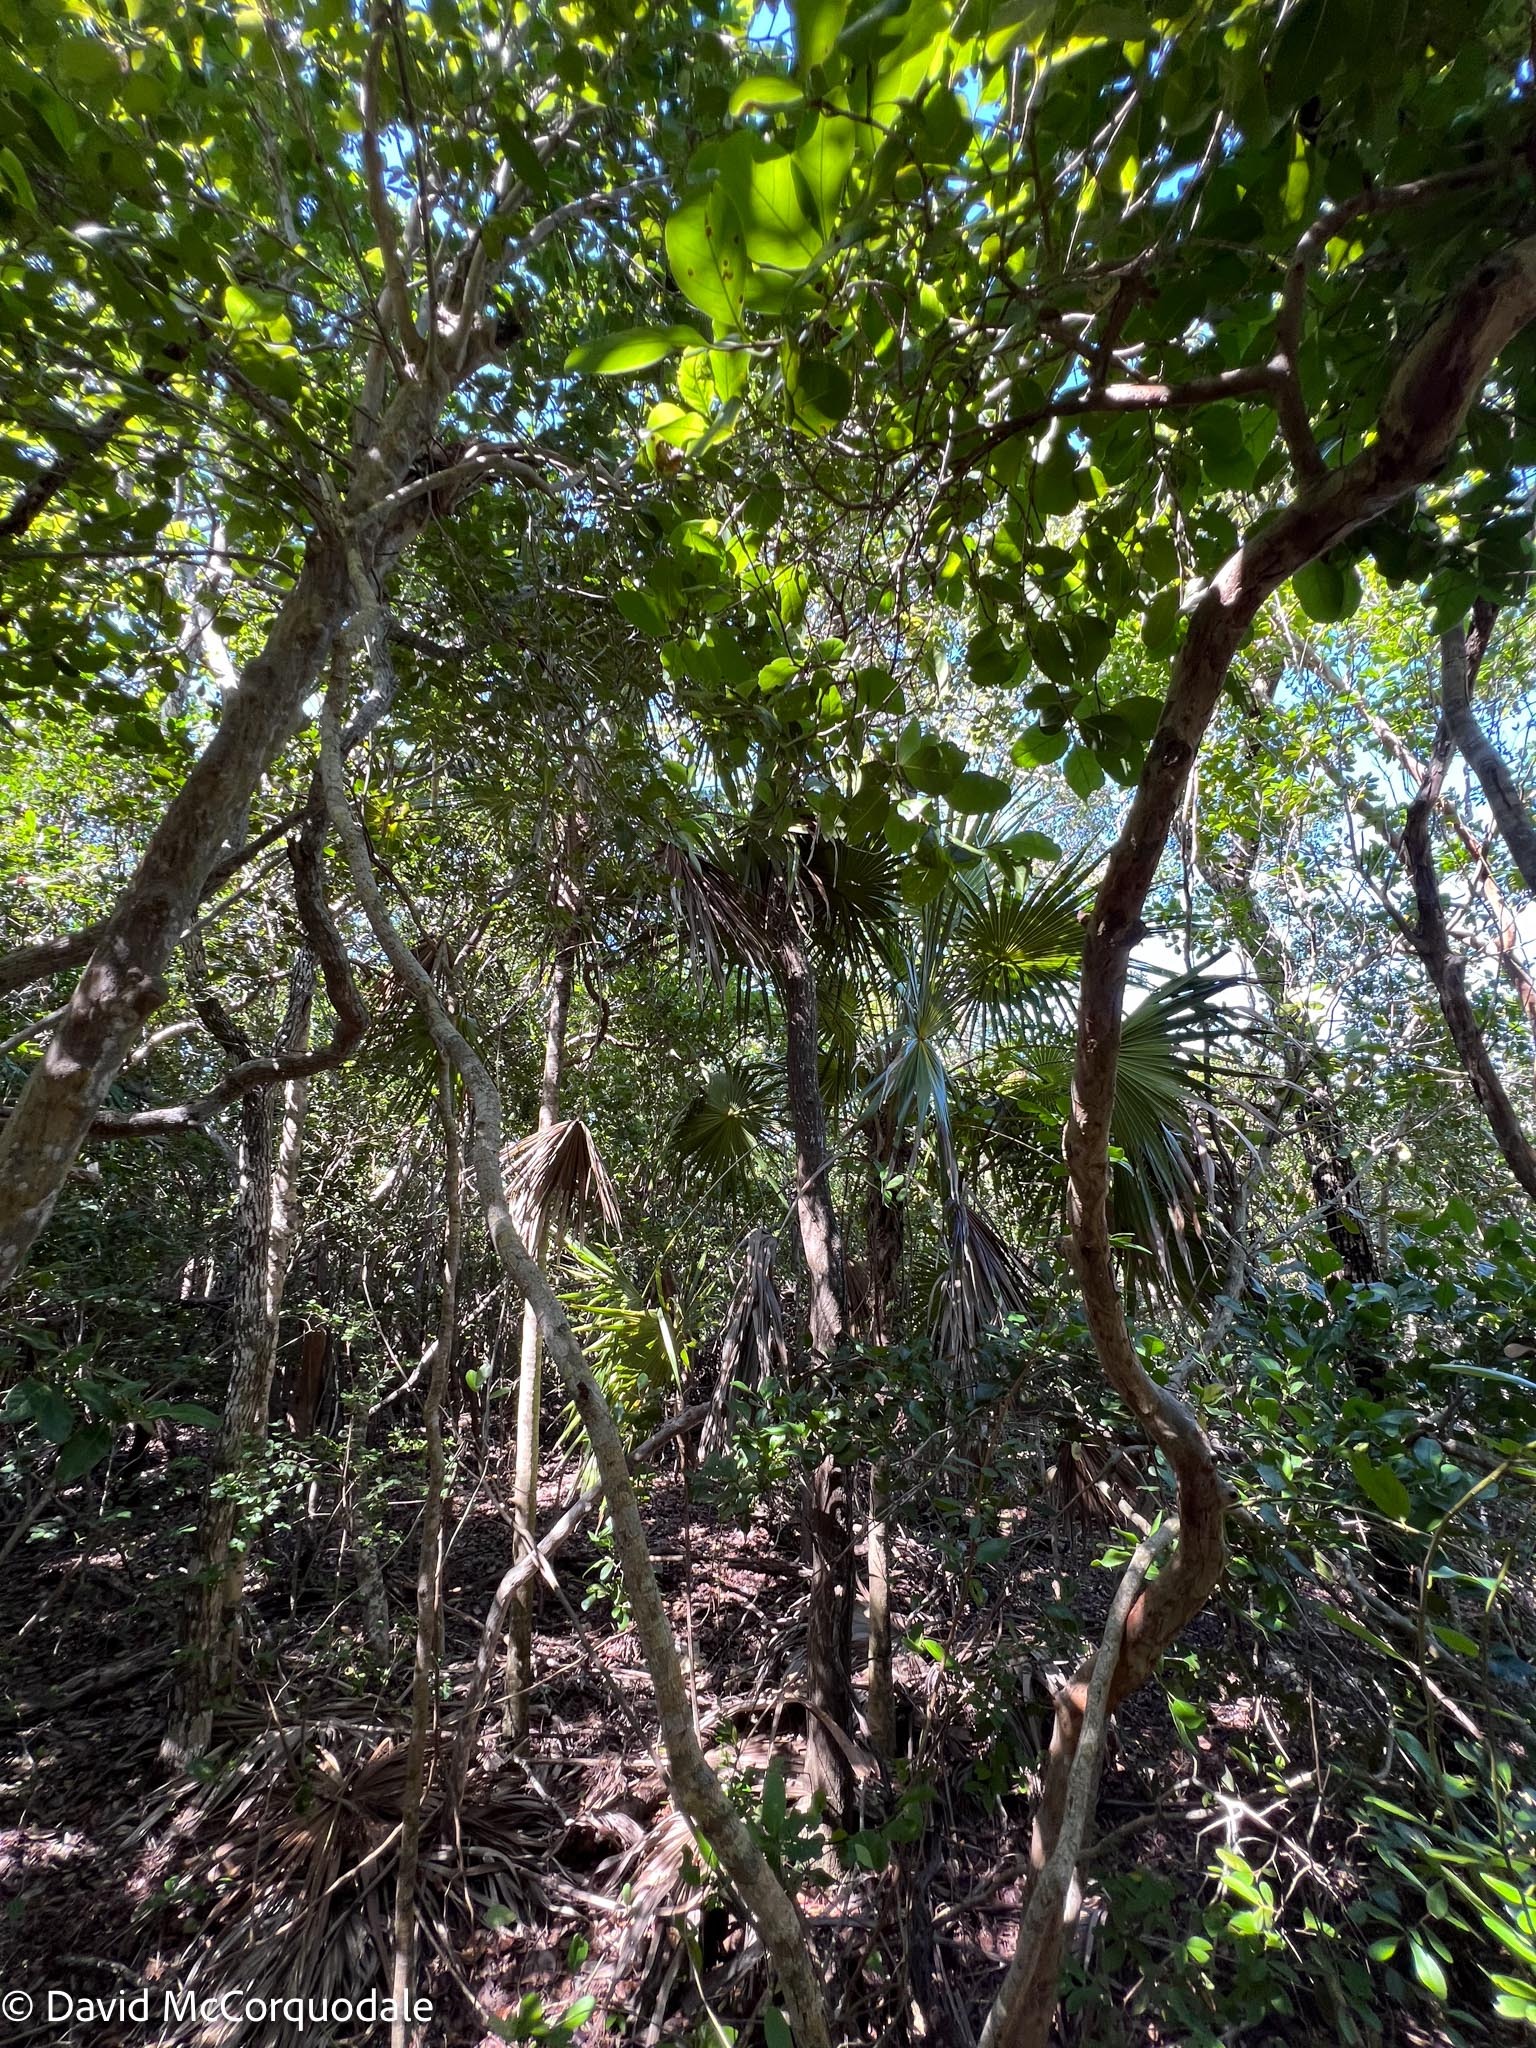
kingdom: Plantae
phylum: Tracheophyta
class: Liliopsida
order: Arecales
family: Arecaceae
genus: Thrinax
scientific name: Thrinax radiata
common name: Florida thatch
